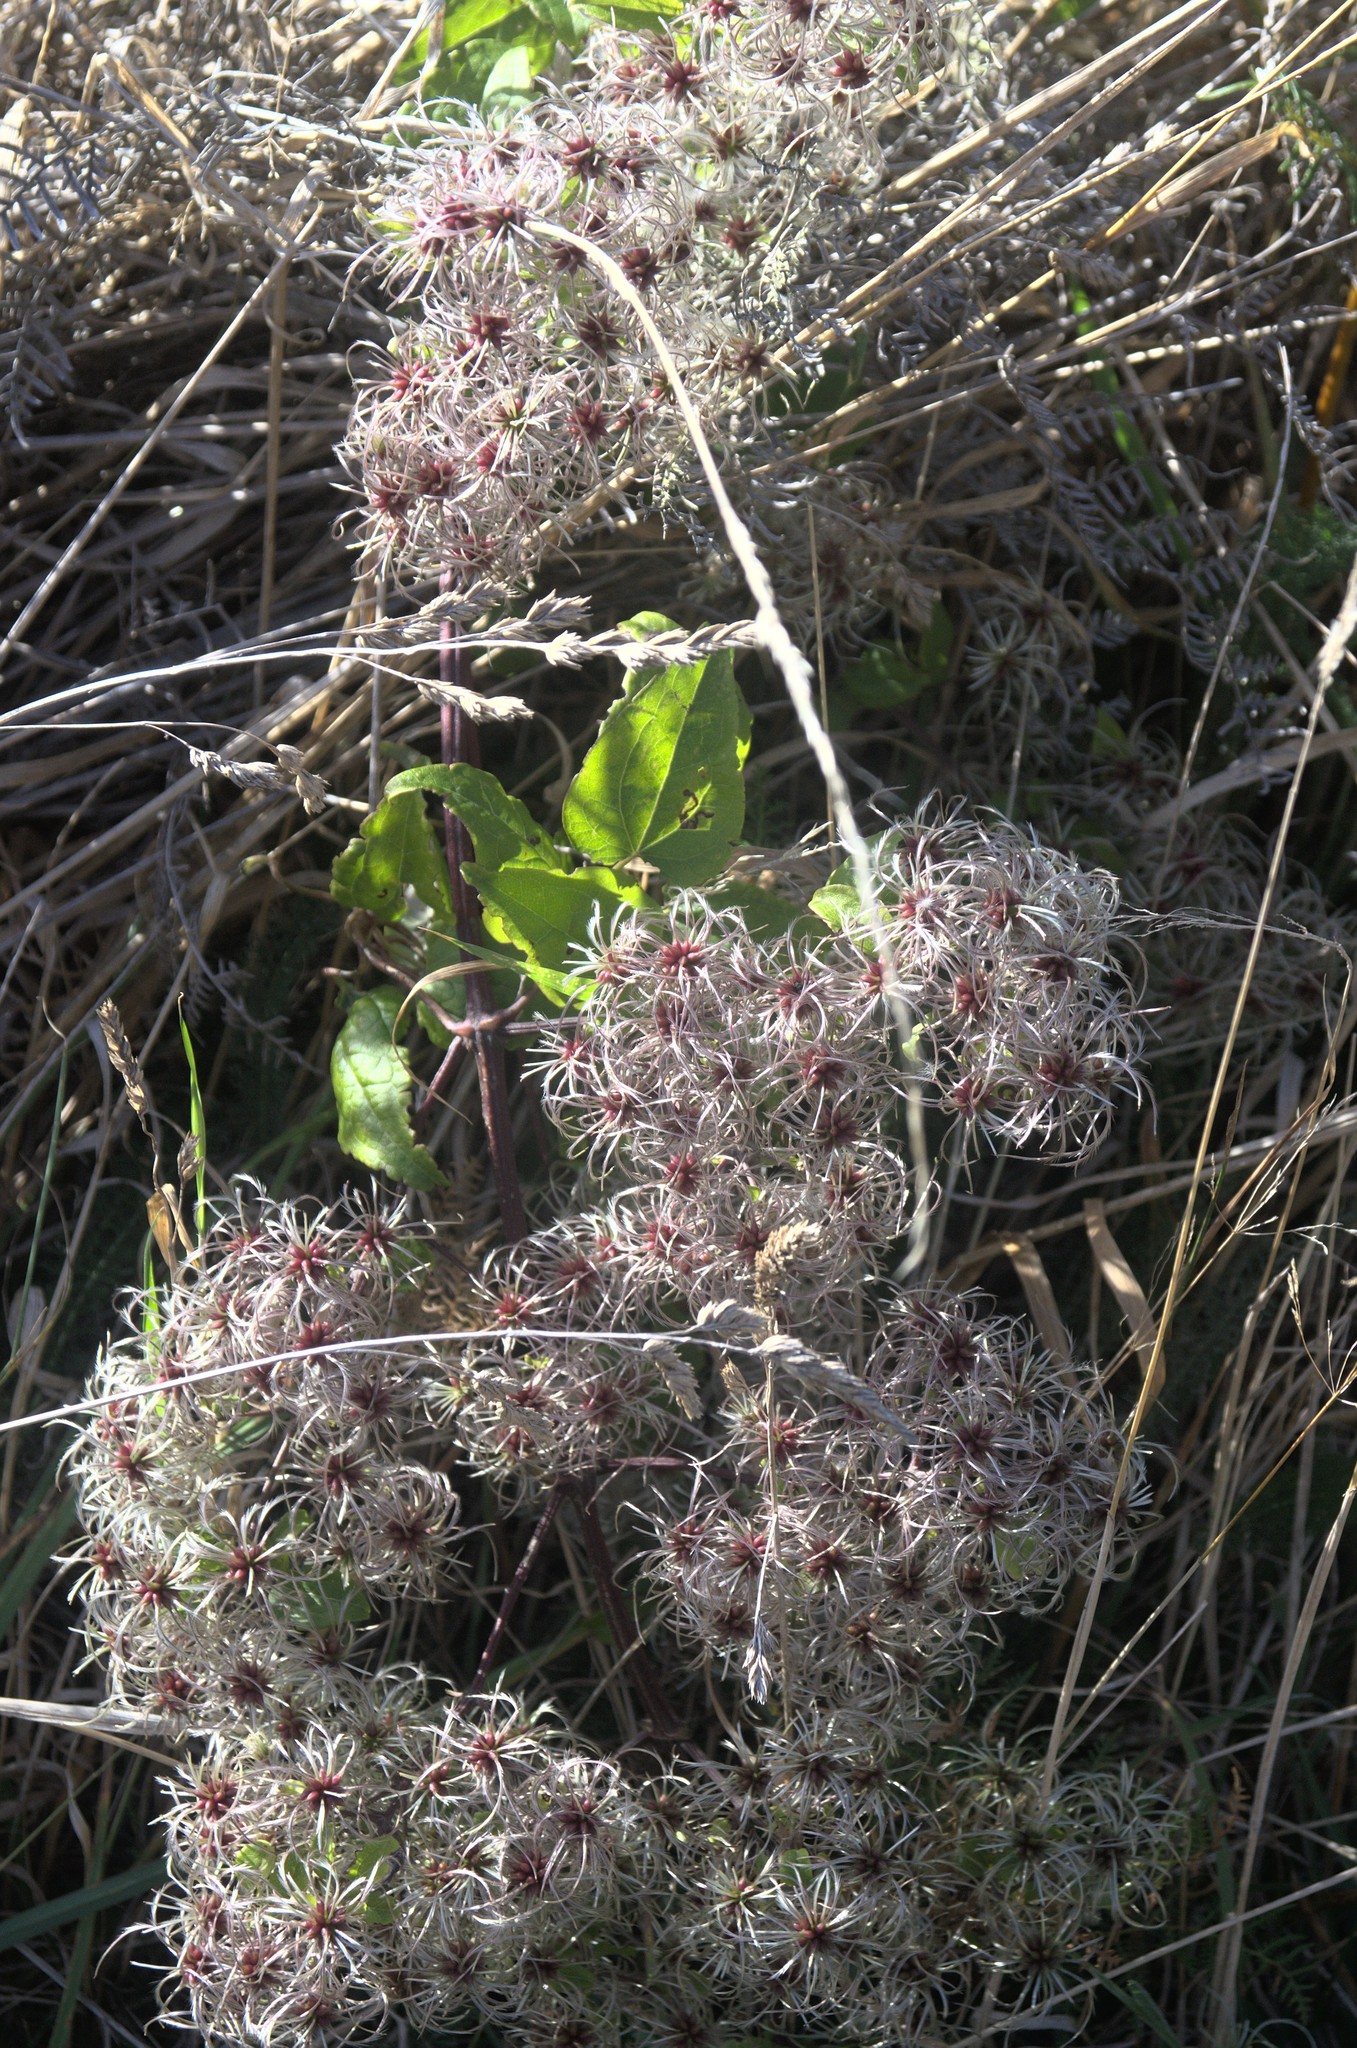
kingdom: Plantae
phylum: Tracheophyta
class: Magnoliopsida
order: Ranunculales
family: Ranunculaceae
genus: Clematis
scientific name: Clematis vitalba
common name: Evergreen clematis
